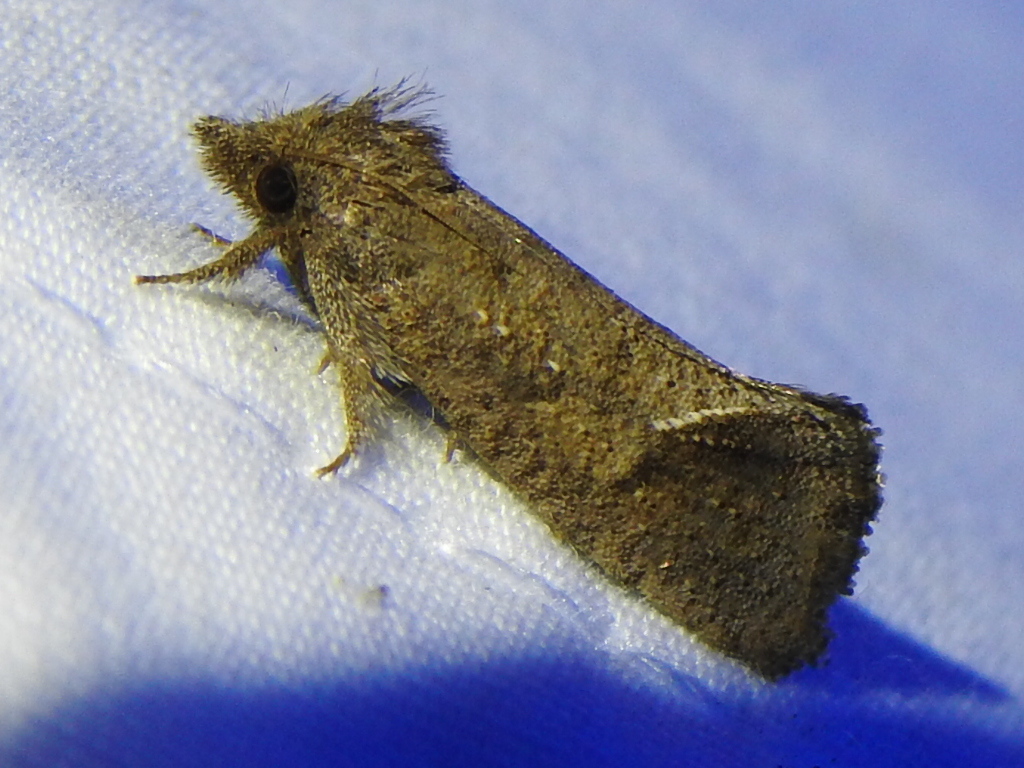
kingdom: Animalia
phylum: Arthropoda
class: Insecta
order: Lepidoptera
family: Tineidae
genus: Acrolophus
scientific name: Acrolophus texanella
